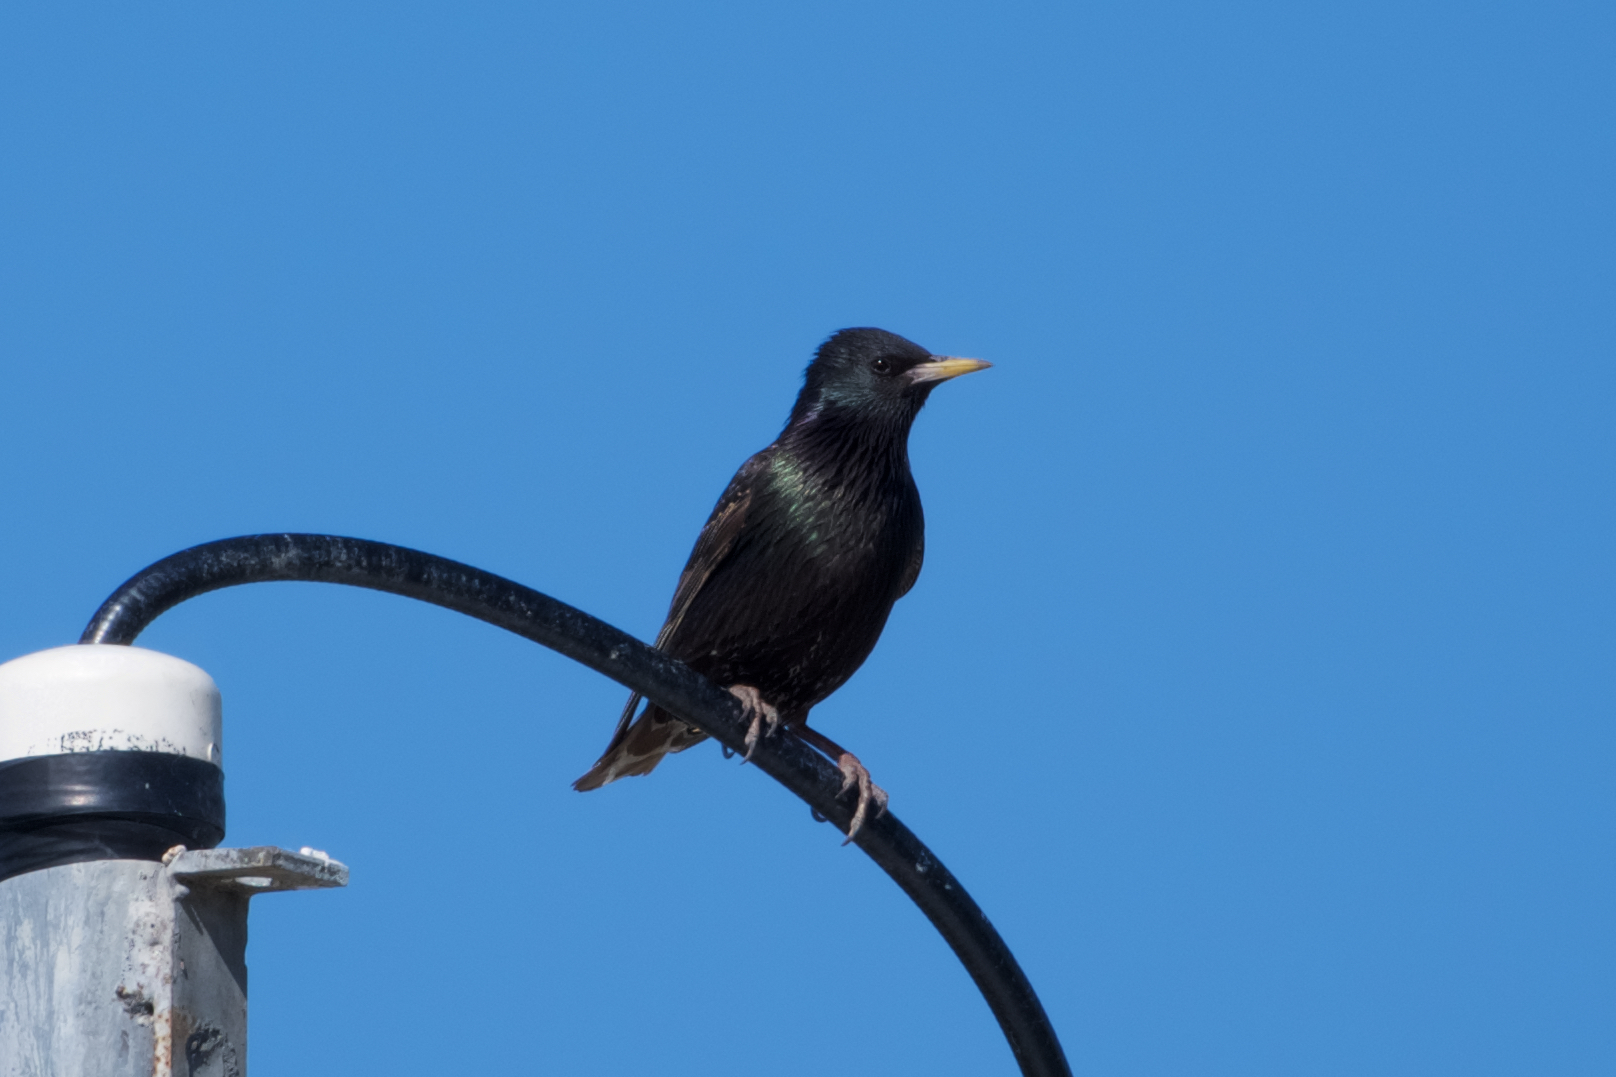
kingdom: Animalia
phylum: Chordata
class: Aves
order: Passeriformes
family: Sturnidae
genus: Sturnus
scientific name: Sturnus vulgaris
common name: Common starling
